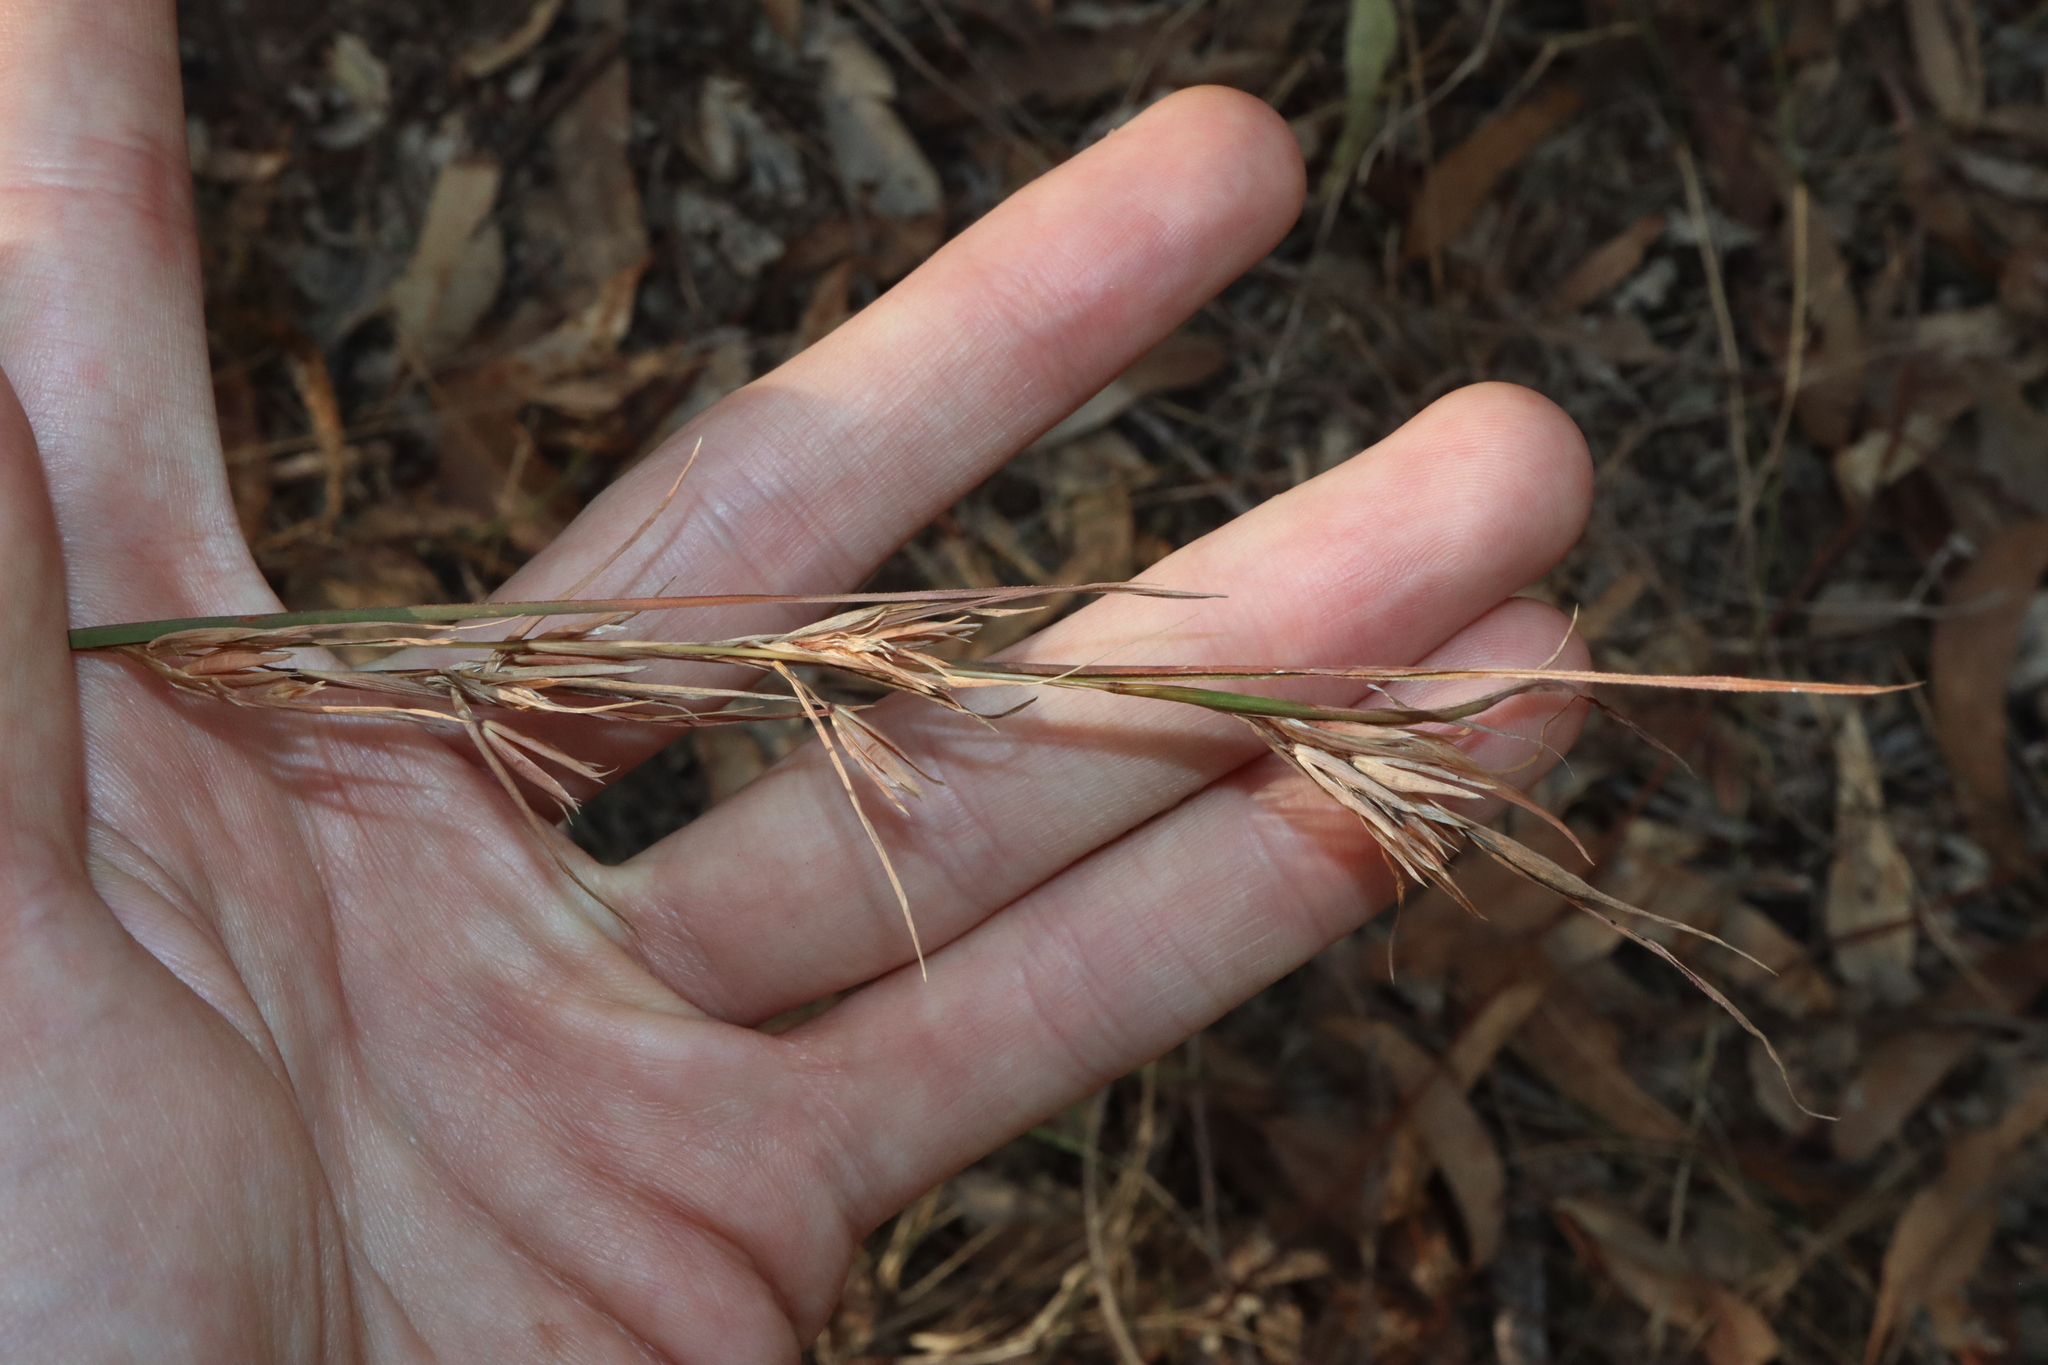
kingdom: Plantae
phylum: Tracheophyta
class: Liliopsida
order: Poales
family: Poaceae
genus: Themeda
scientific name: Themeda triandra
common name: Kangaroo grass
